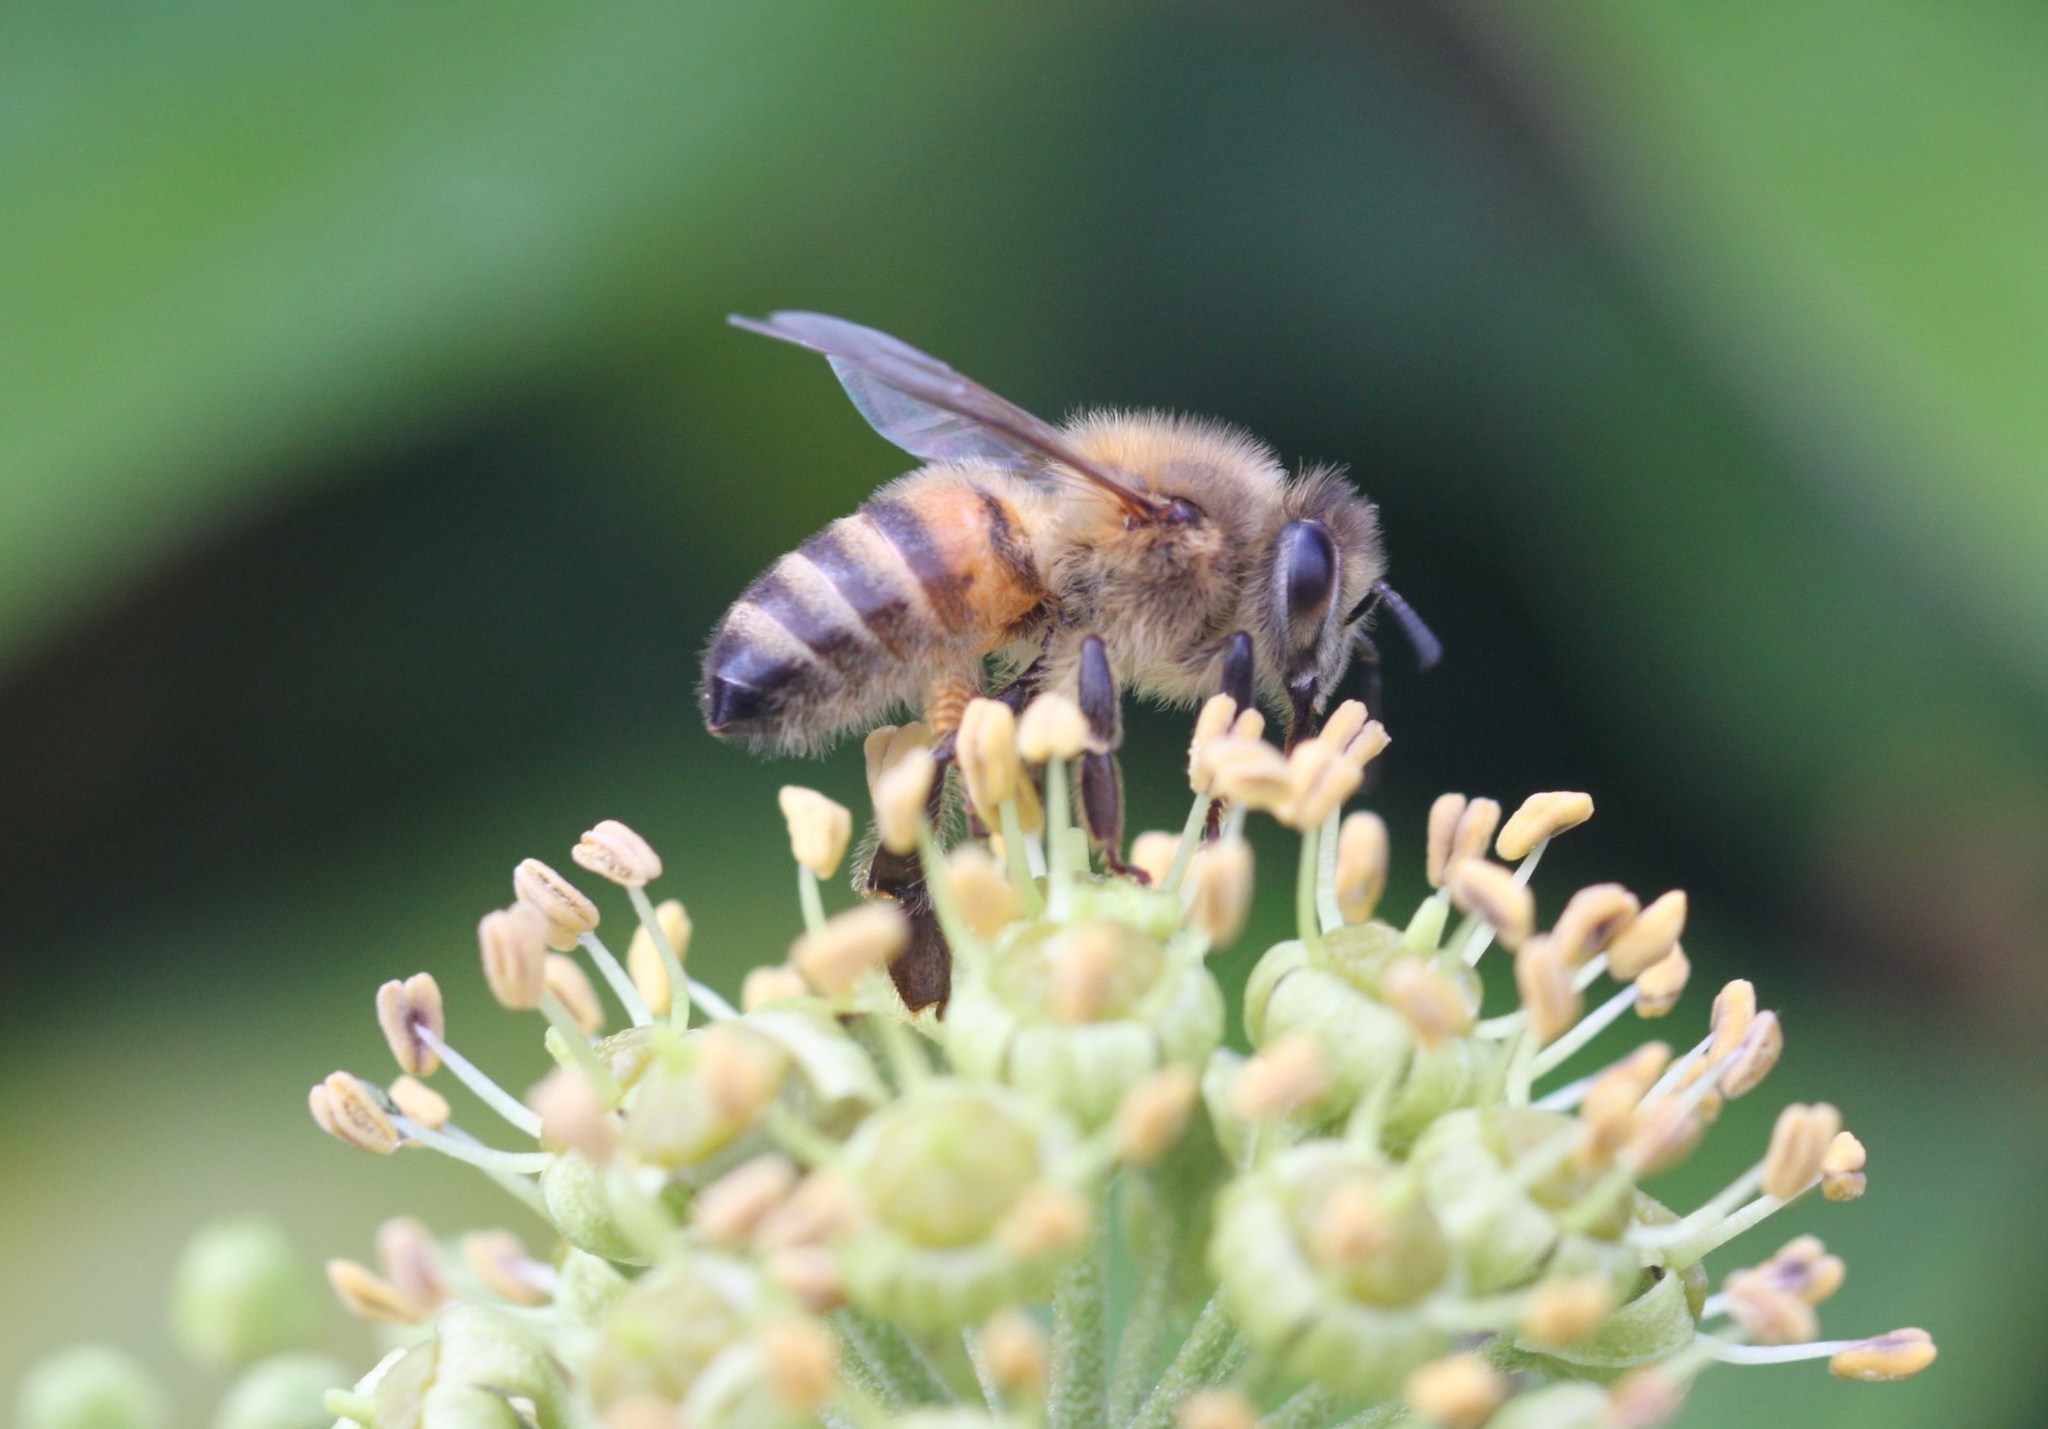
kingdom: Animalia
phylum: Arthropoda
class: Insecta
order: Hymenoptera
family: Apidae
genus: Apis
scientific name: Apis mellifera
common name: Honey bee
